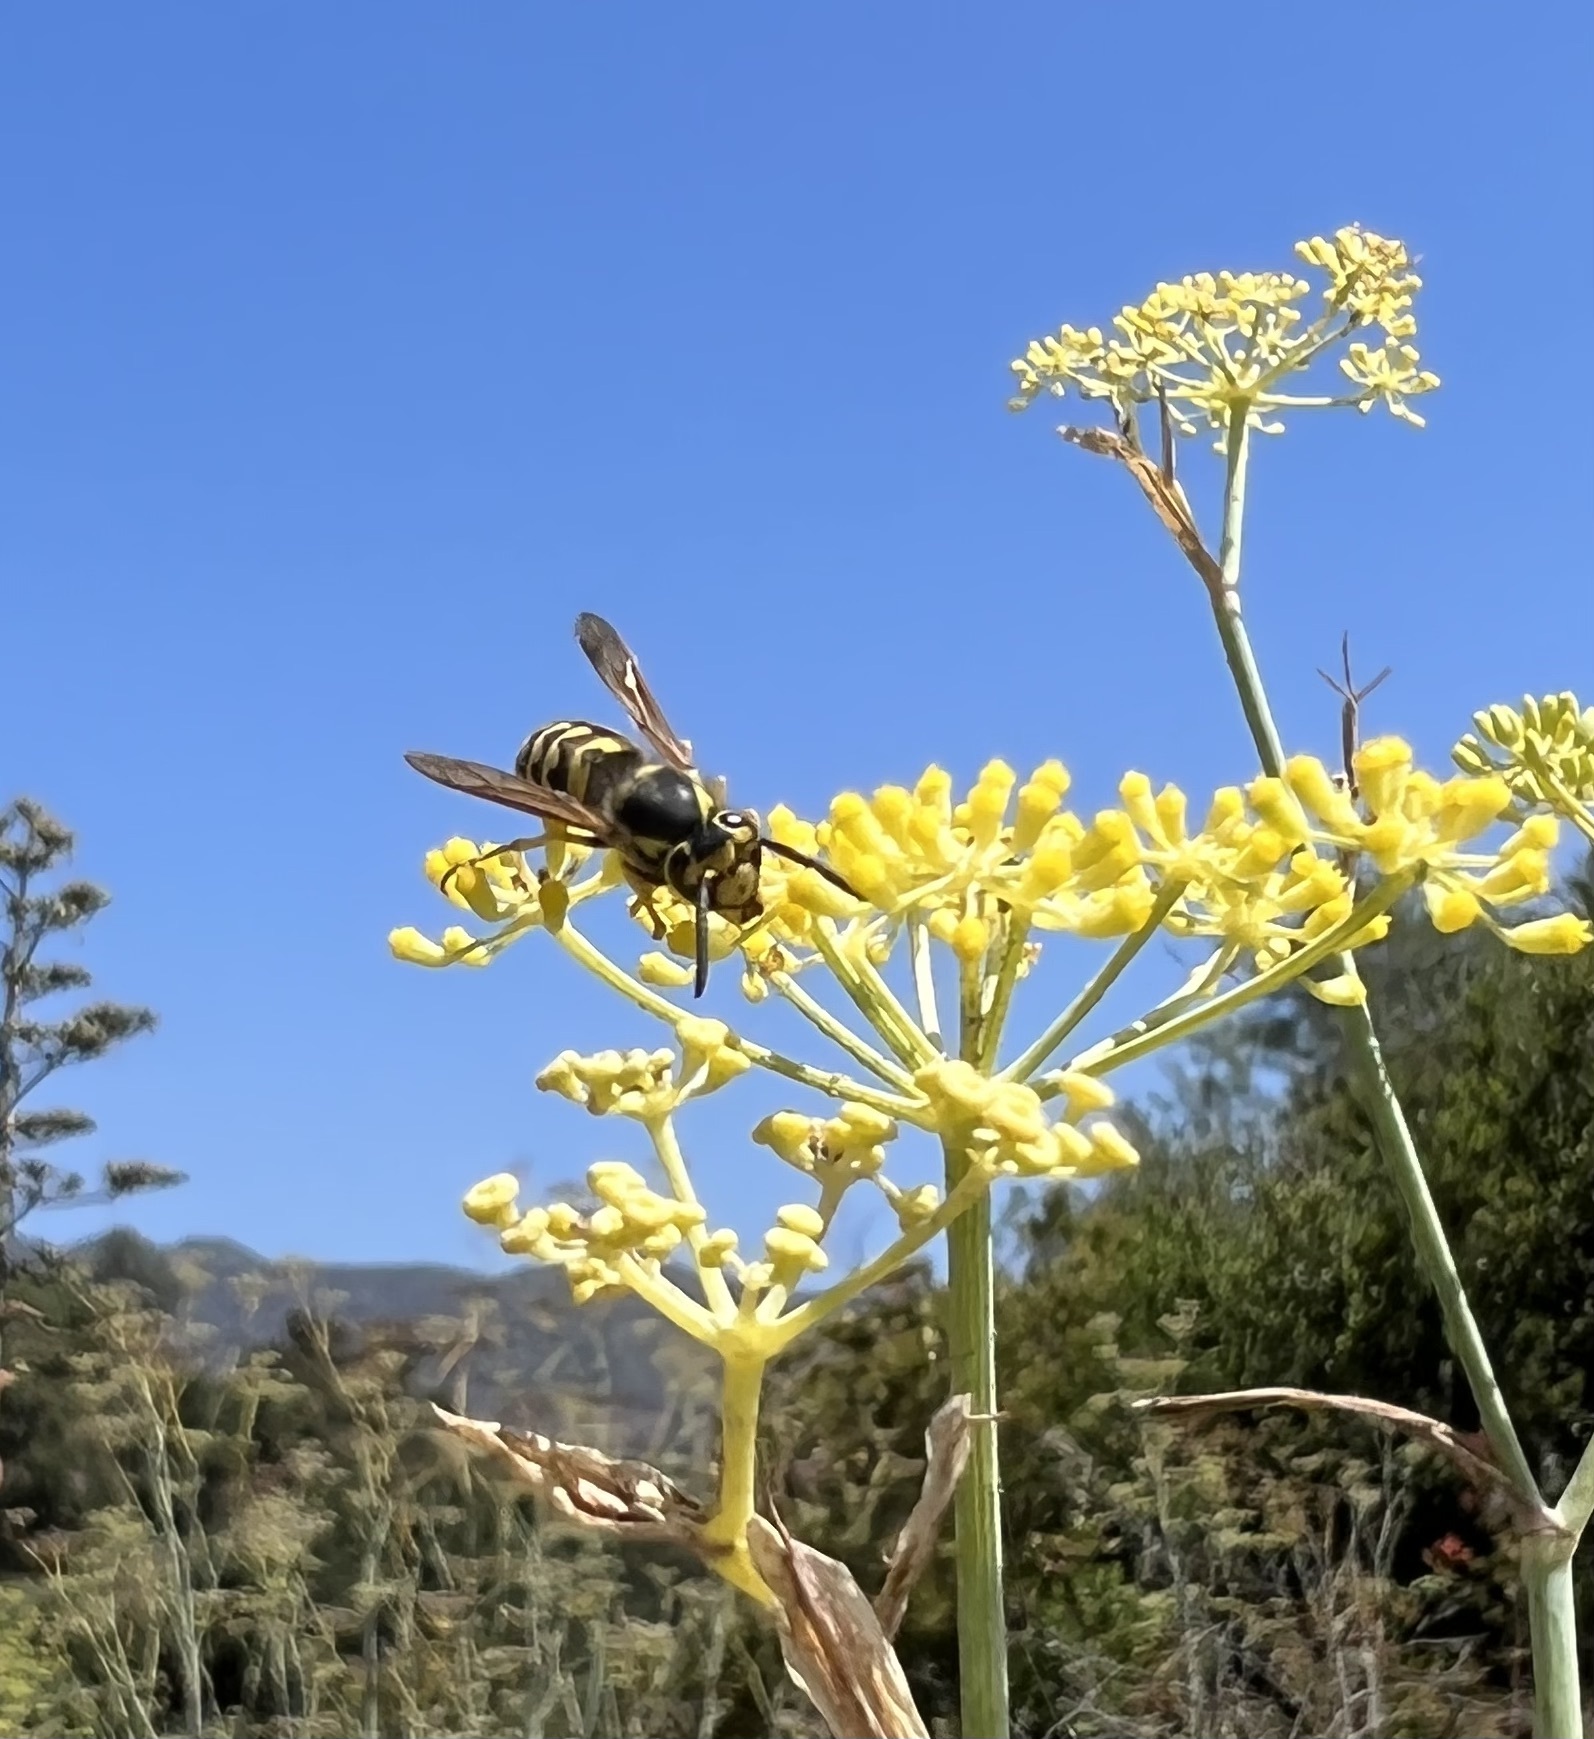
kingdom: Animalia
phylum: Arthropoda
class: Insecta
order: Hymenoptera
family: Vespidae
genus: Vespula
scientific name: Vespula pensylvanica
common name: Western yellowjacket
